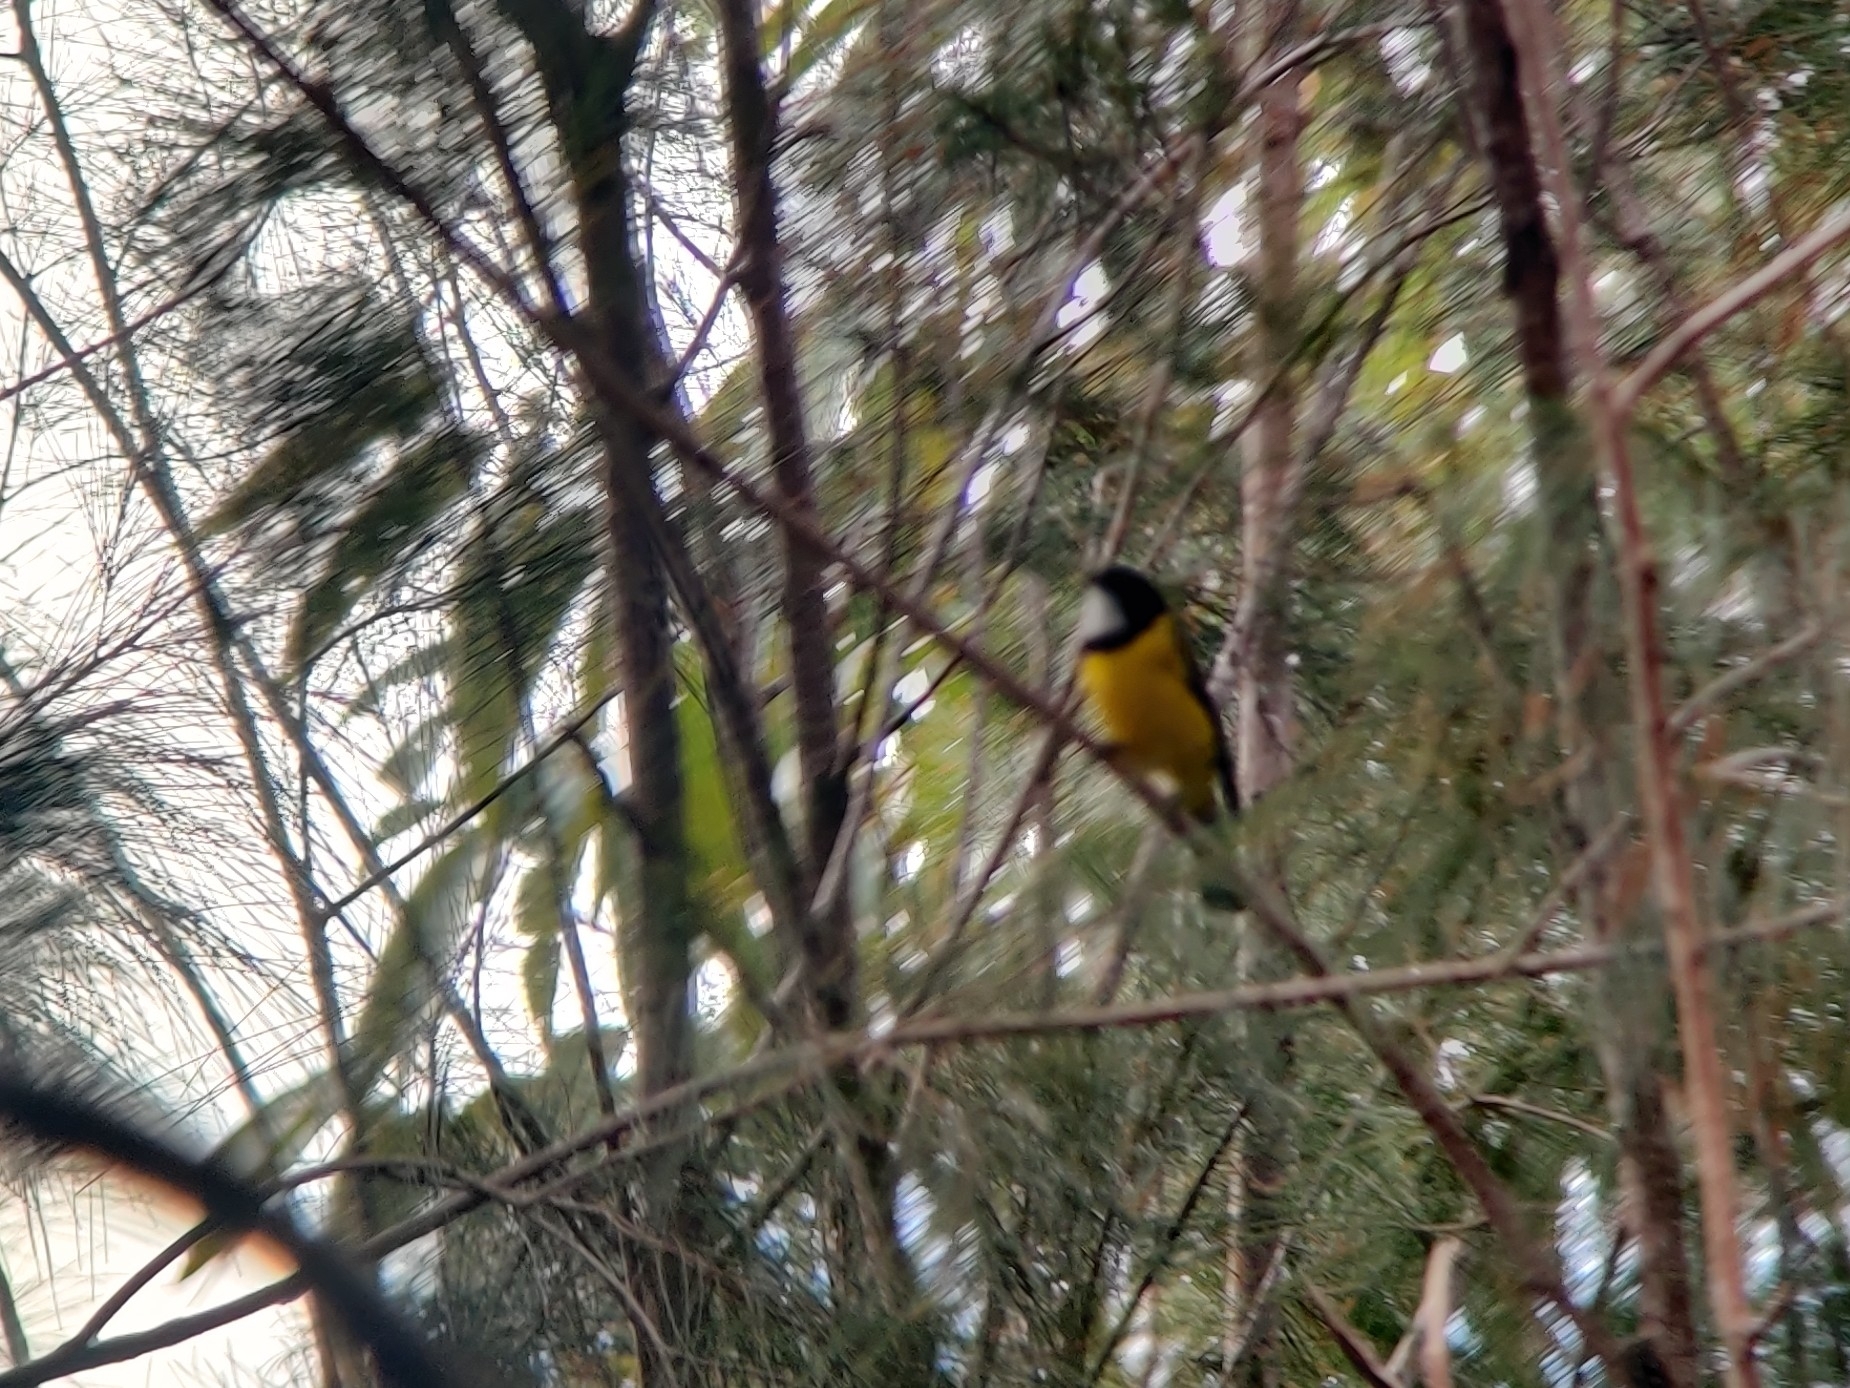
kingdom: Animalia
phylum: Chordata
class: Aves
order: Passeriformes
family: Pachycephalidae
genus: Pachycephala
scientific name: Pachycephala pectoralis
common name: Australian golden whistler
